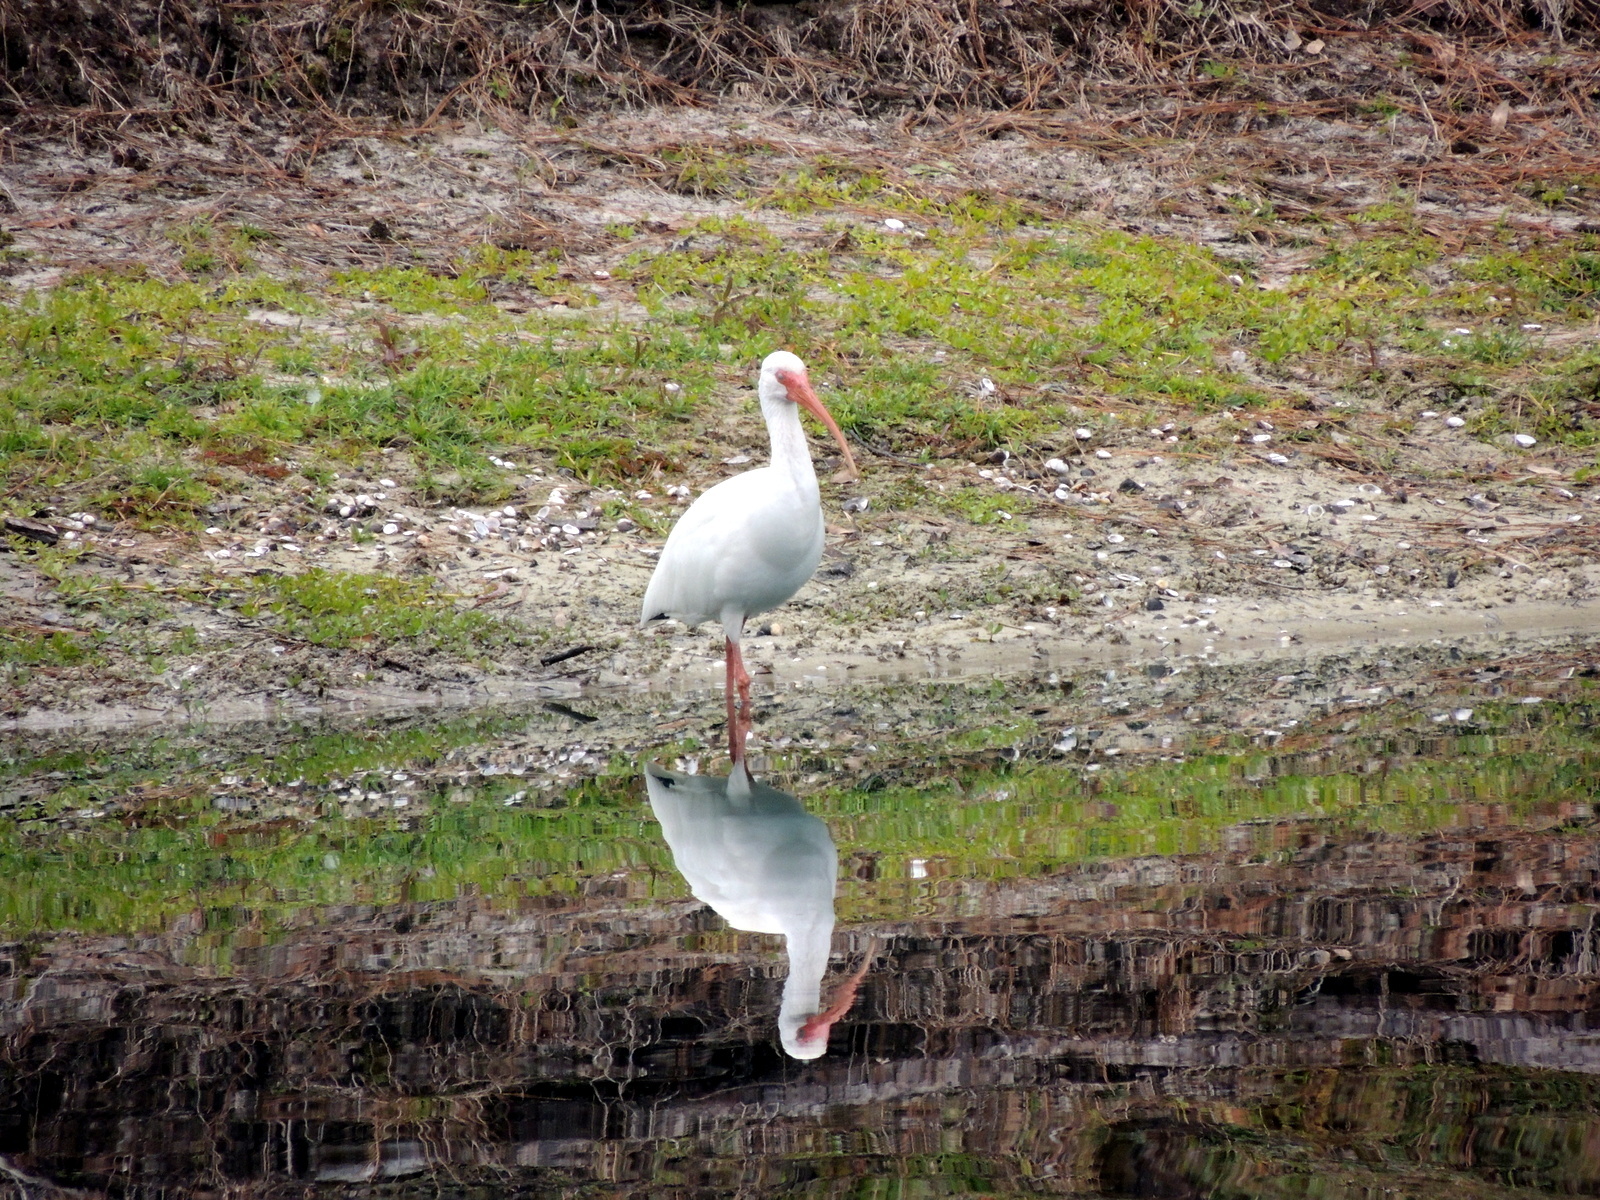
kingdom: Animalia
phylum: Chordata
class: Aves
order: Pelecaniformes
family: Threskiornithidae
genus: Eudocimus
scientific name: Eudocimus albus
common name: White ibis
